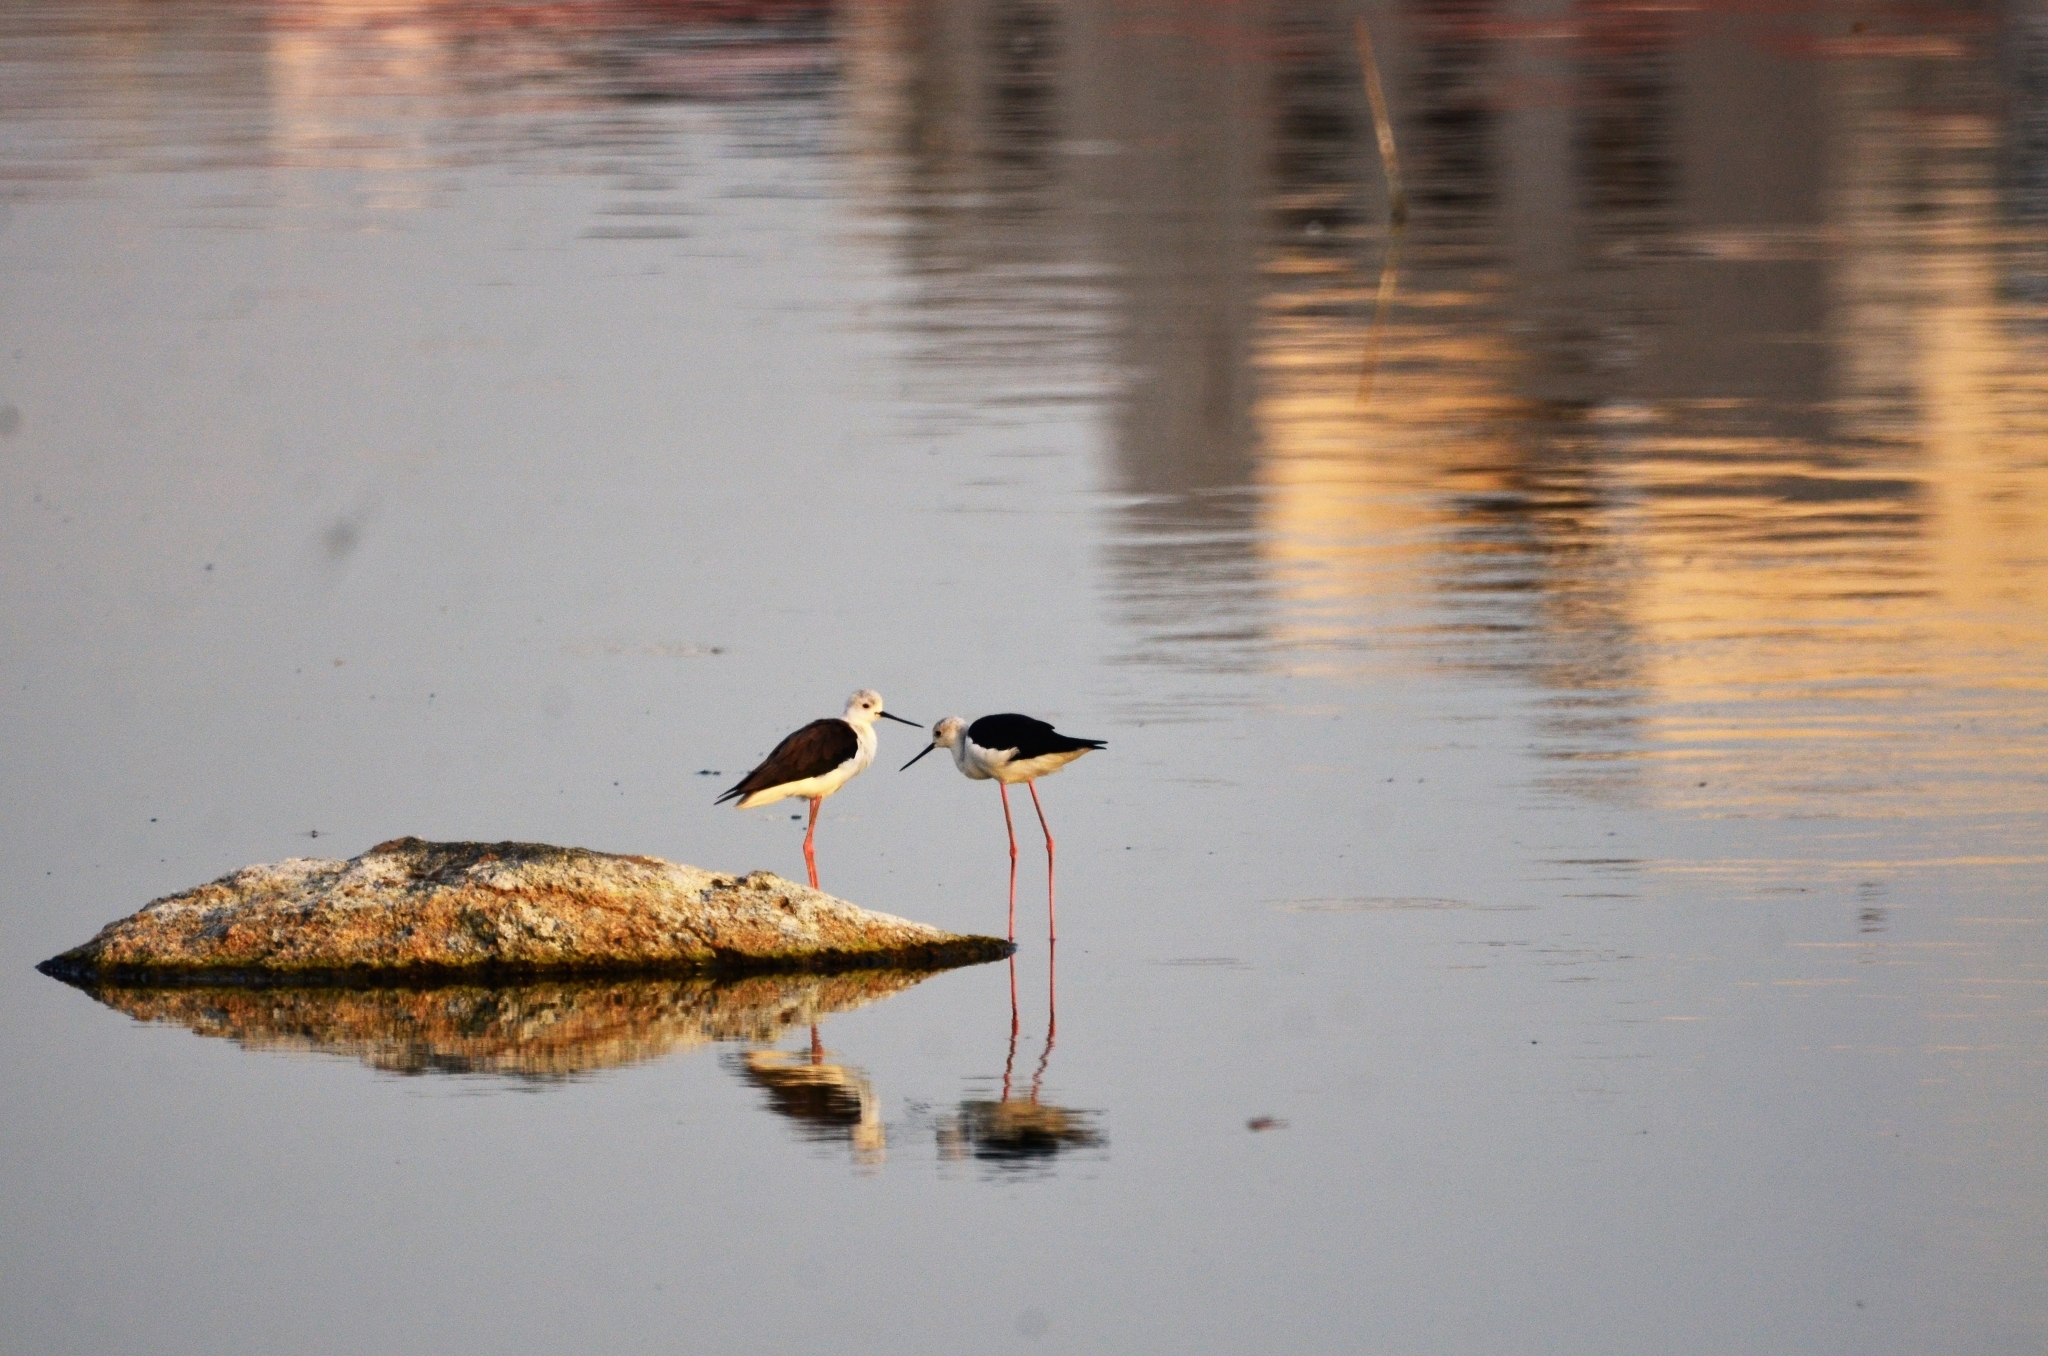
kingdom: Animalia
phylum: Chordata
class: Aves
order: Charadriiformes
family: Recurvirostridae
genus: Himantopus
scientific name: Himantopus himantopus
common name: Black-winged stilt
